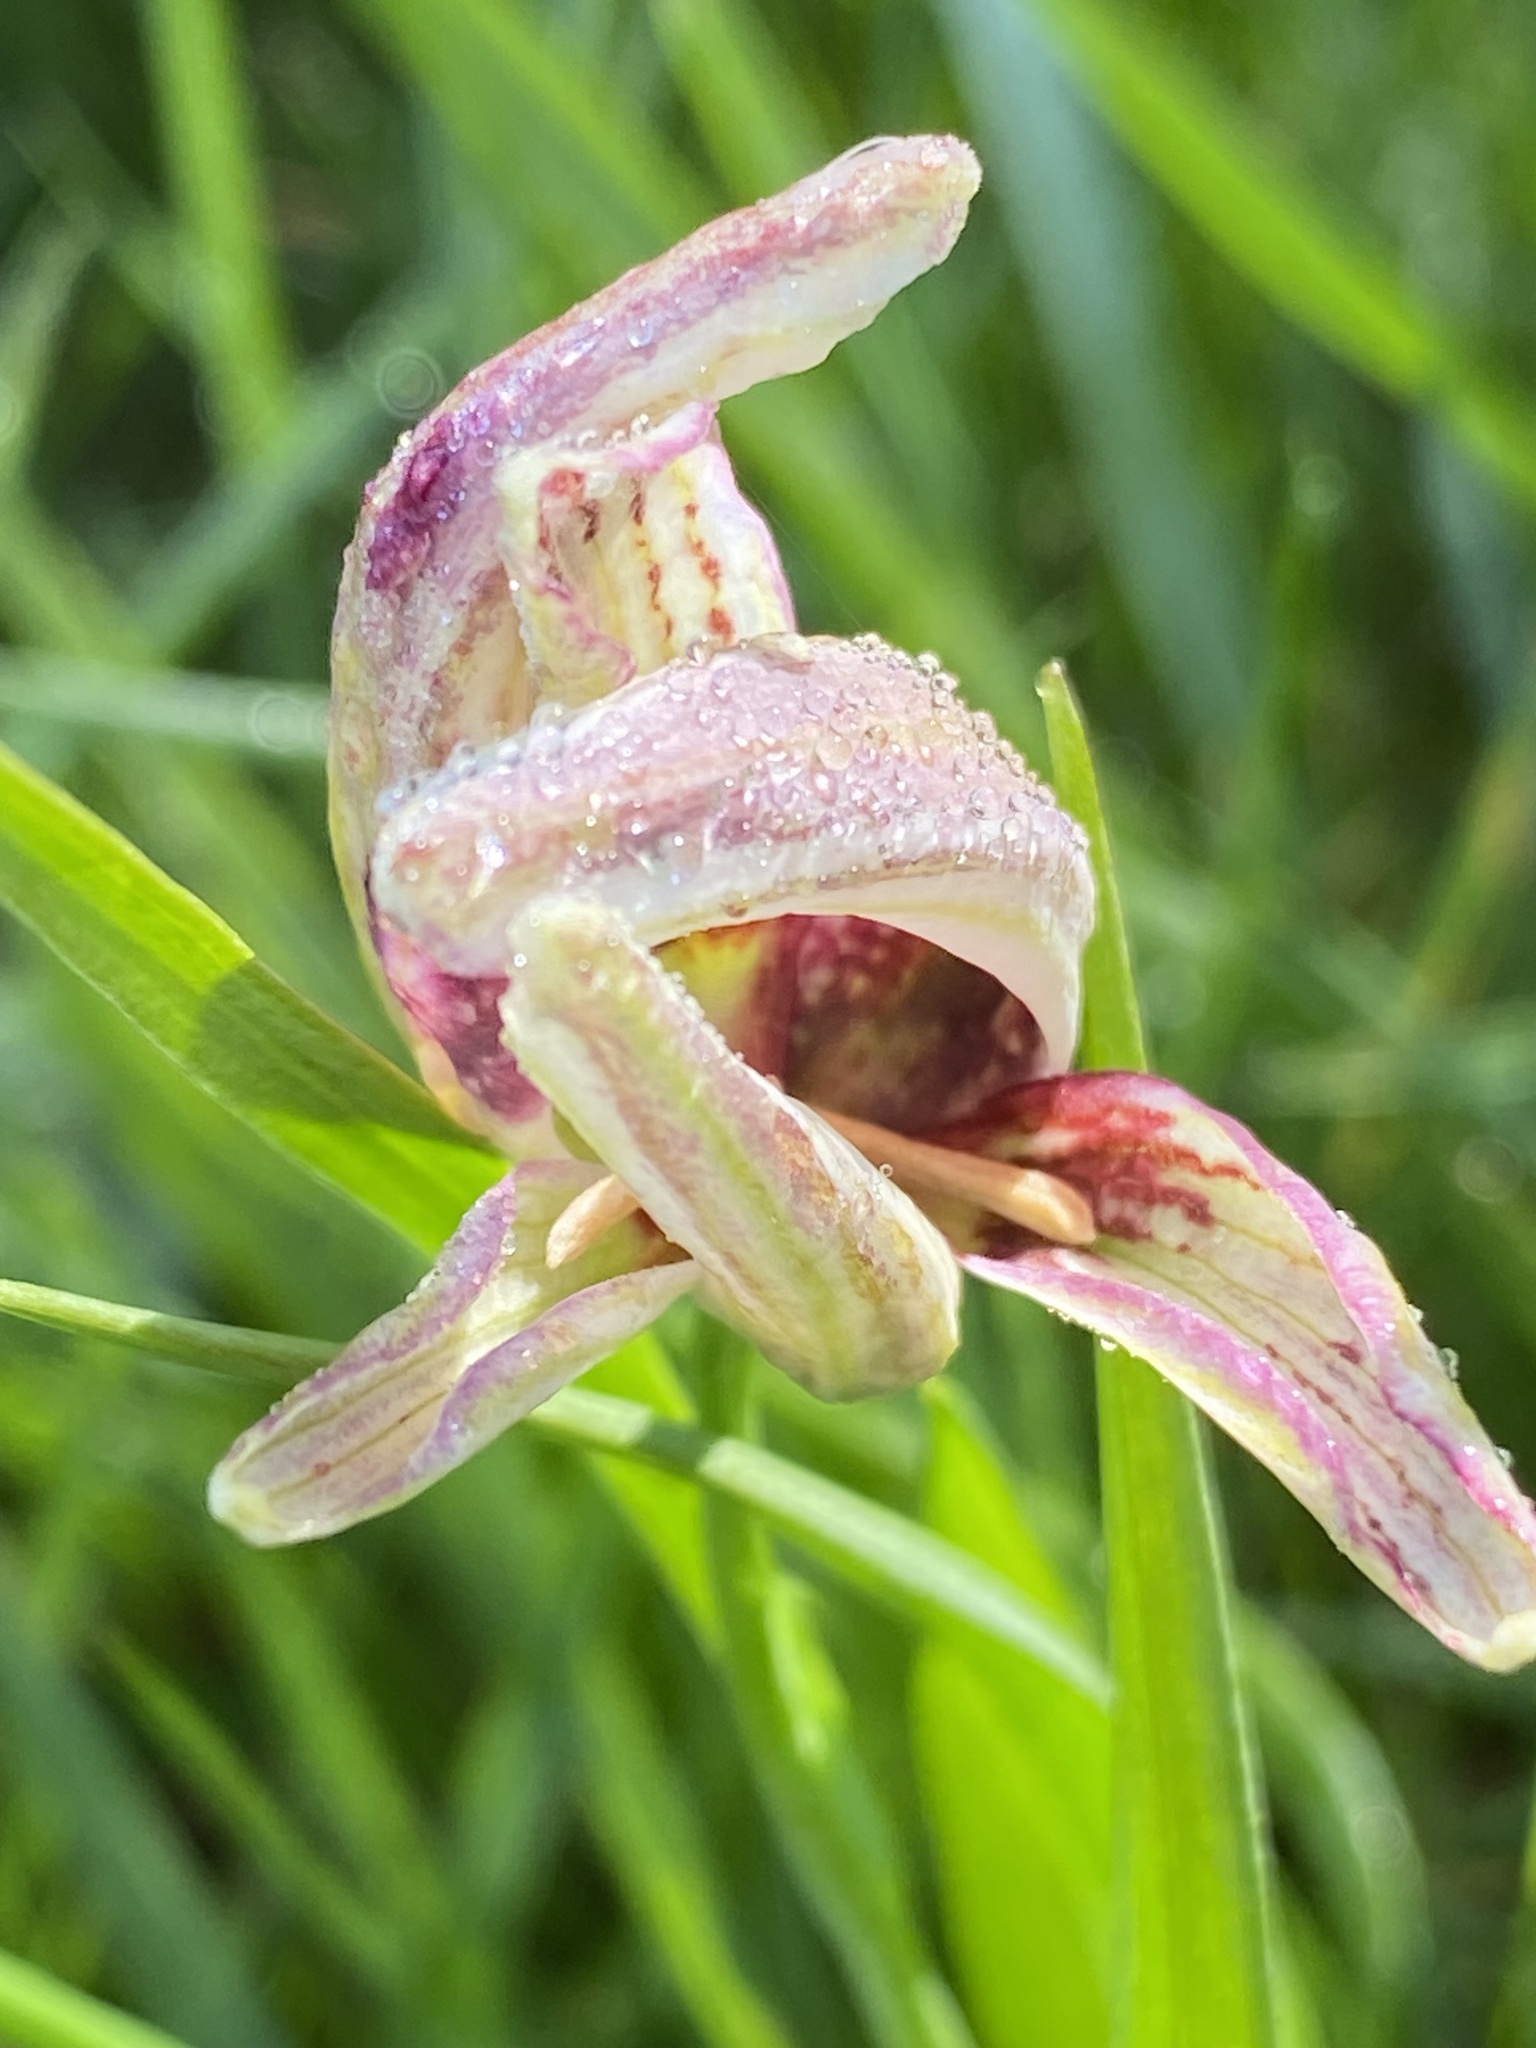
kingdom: Plantae
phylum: Tracheophyta
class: Liliopsida
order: Liliales
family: Liliaceae
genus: Fritillaria
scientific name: Fritillaria meleagris
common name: Fritillary
